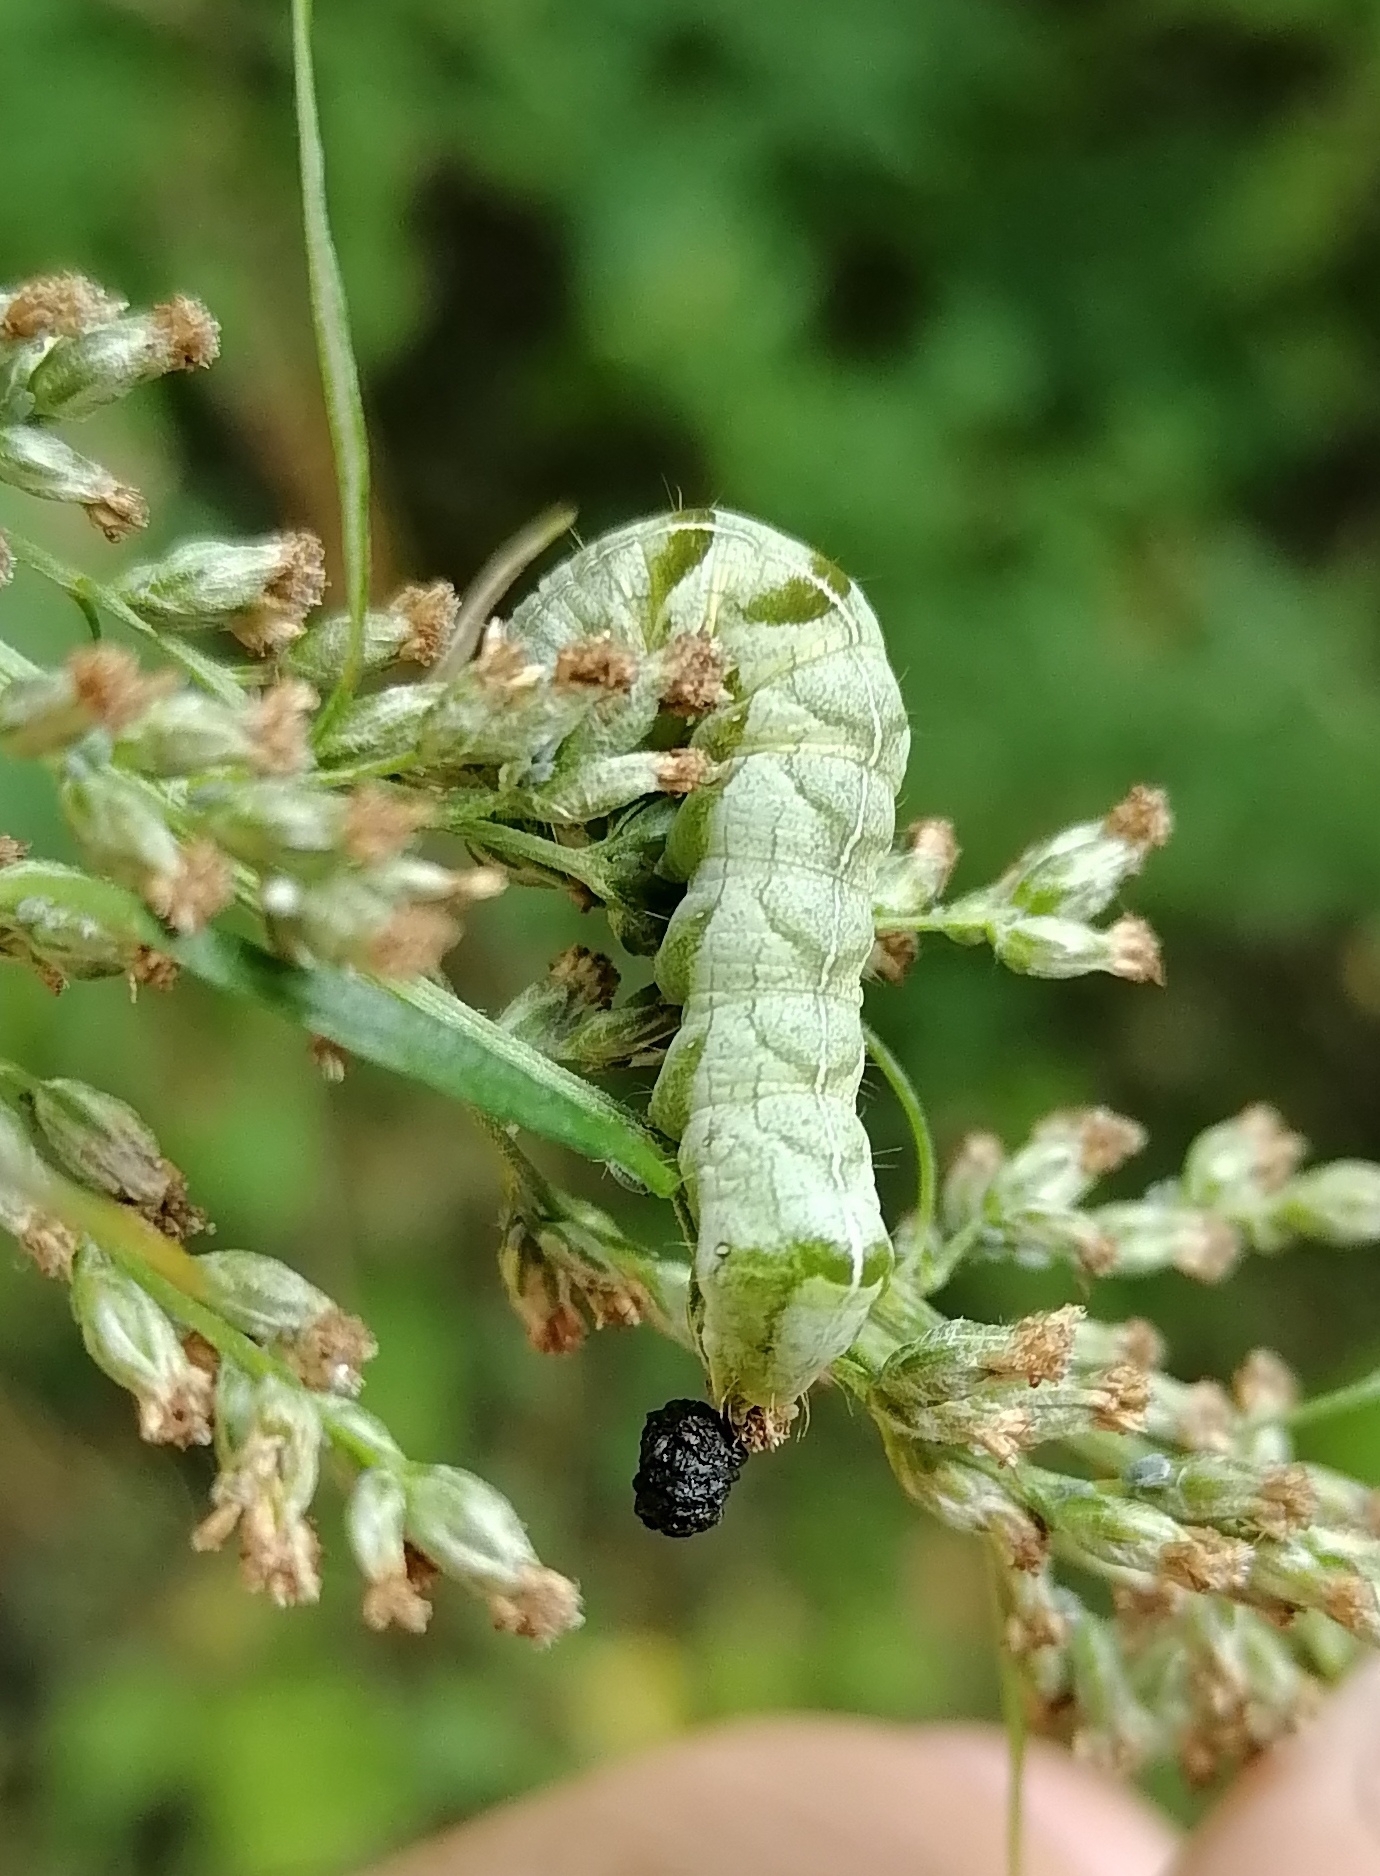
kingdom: Animalia
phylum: Arthropoda
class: Insecta
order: Lepidoptera
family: Noctuidae
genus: Melanchra
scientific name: Melanchra persicariae
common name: Dot moth
